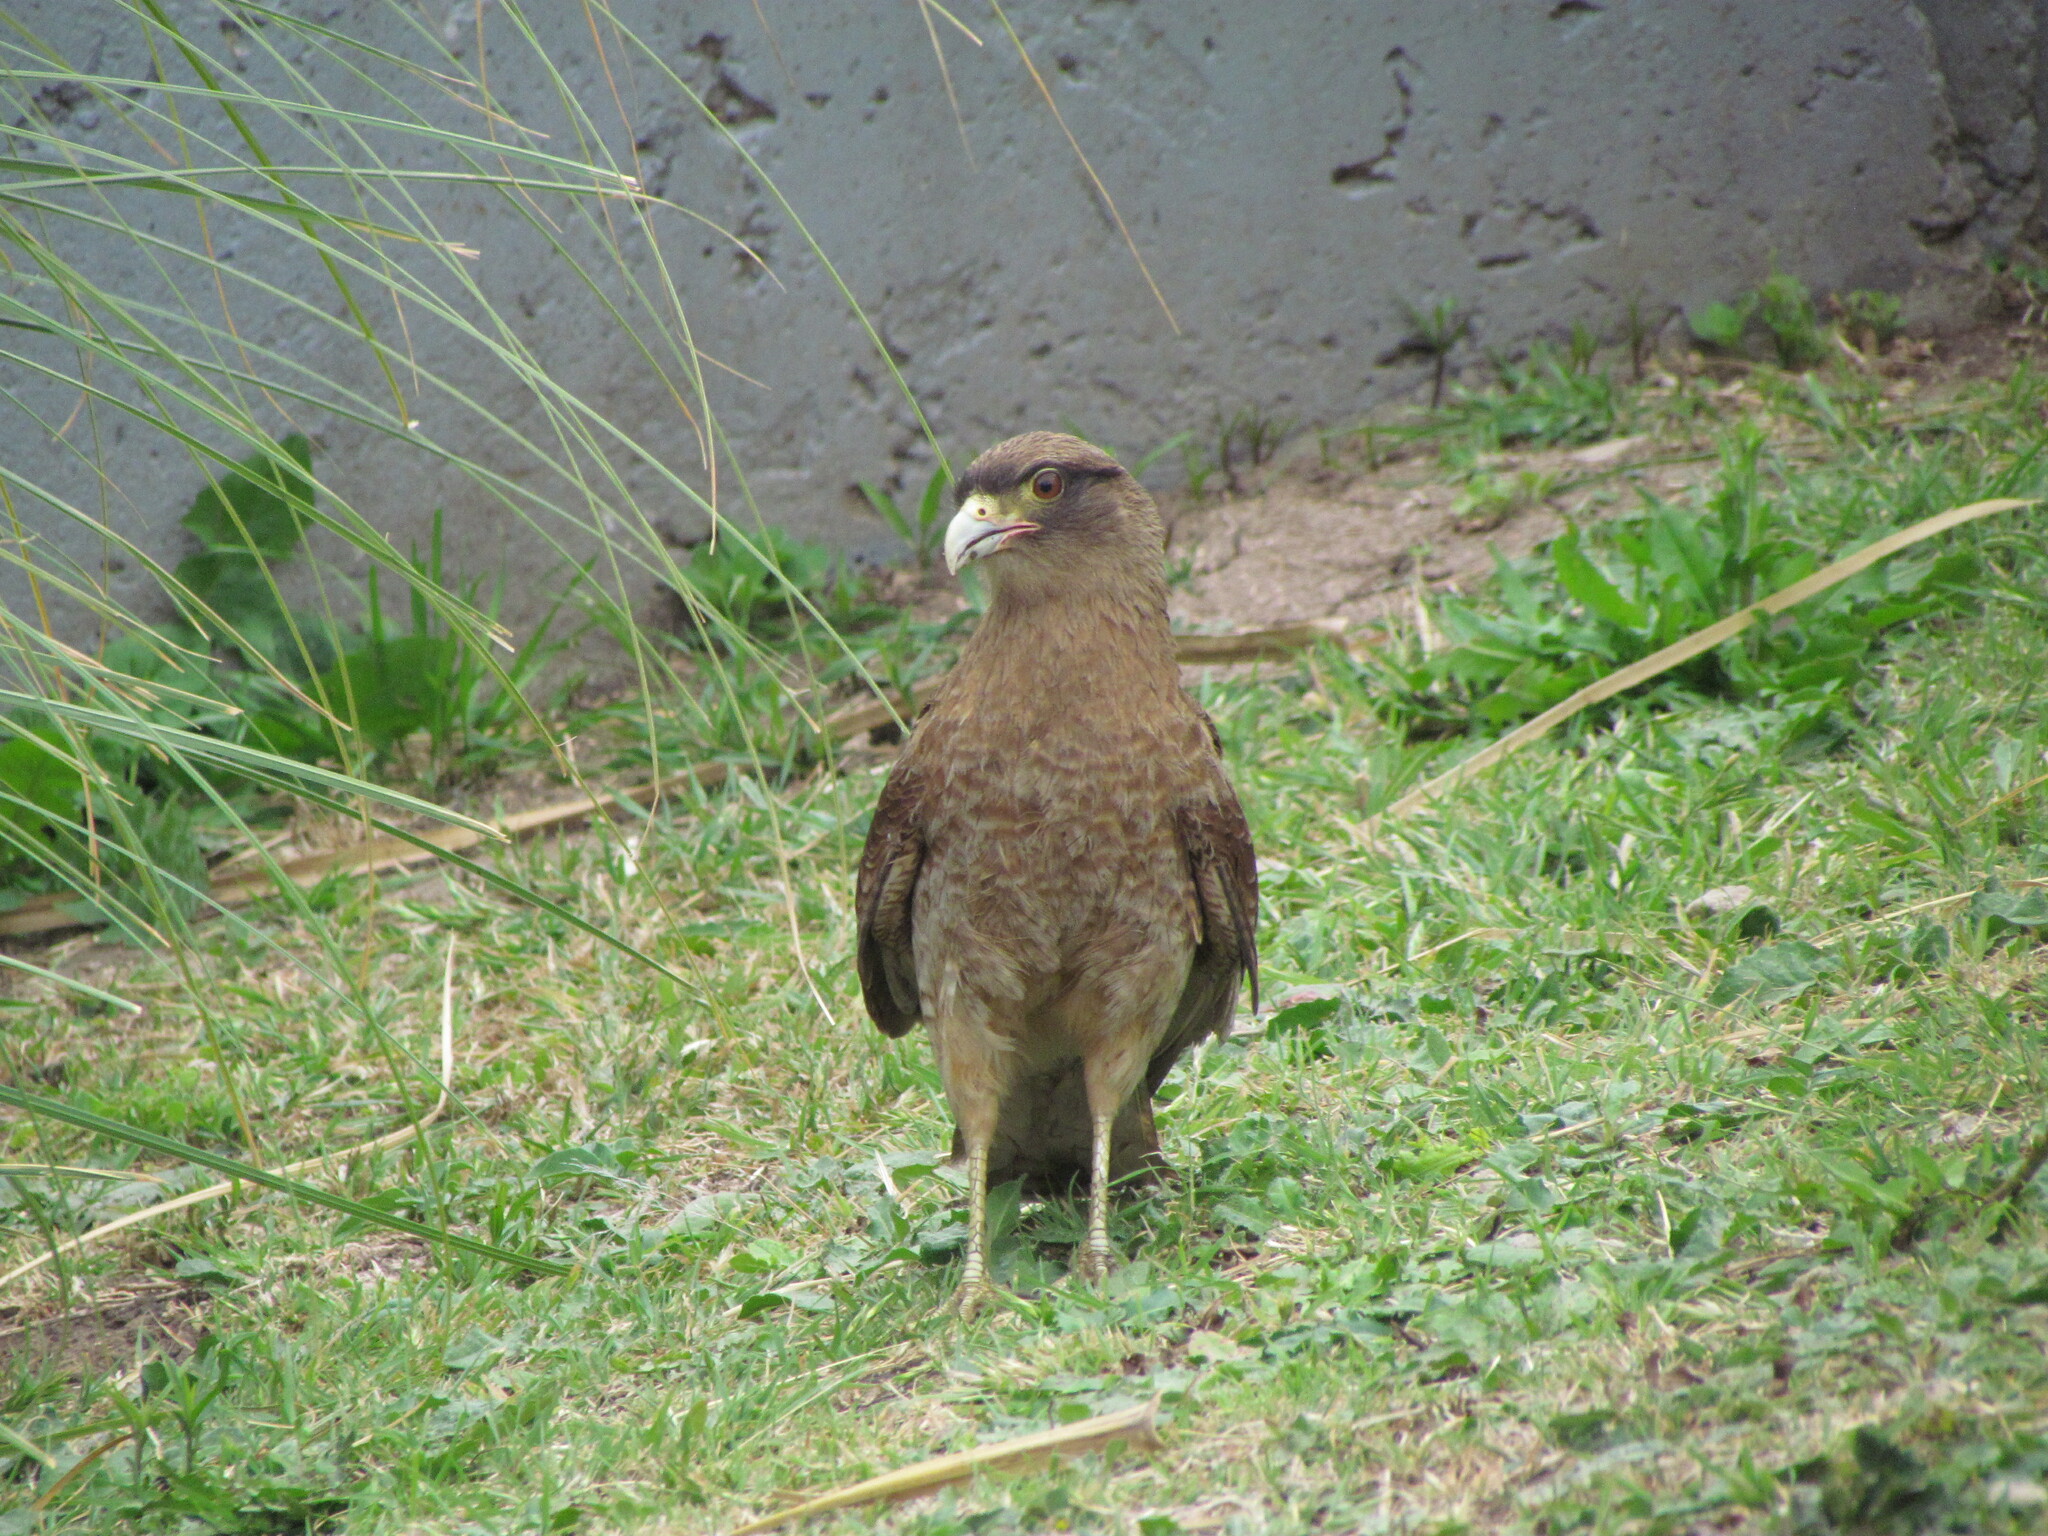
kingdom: Animalia
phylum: Chordata
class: Aves
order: Falconiformes
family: Falconidae
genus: Daptrius
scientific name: Daptrius
